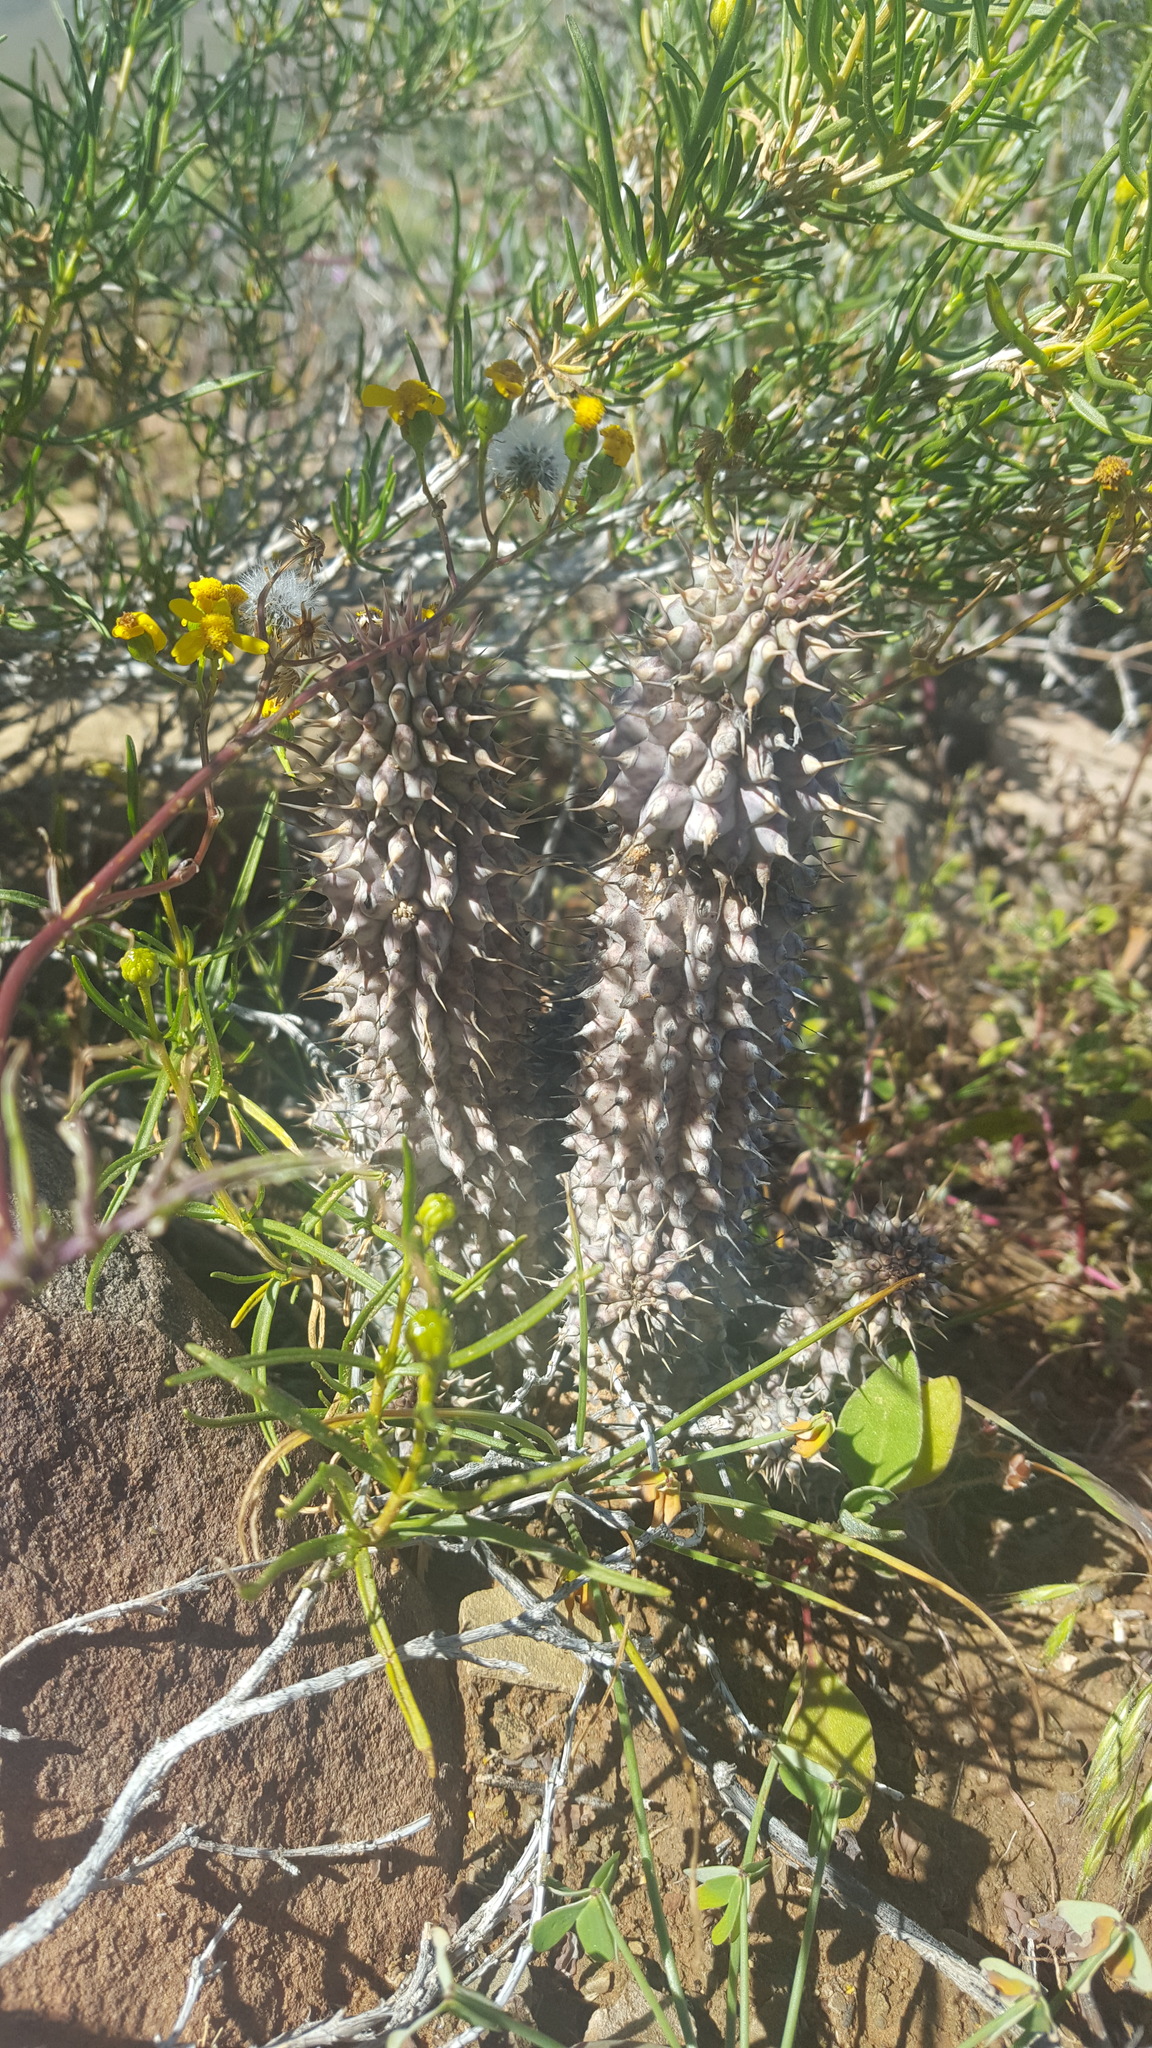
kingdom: Plantae
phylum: Tracheophyta
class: Magnoliopsida
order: Gentianales
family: Apocynaceae
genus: Hoodia
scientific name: Hoodia gordonii
